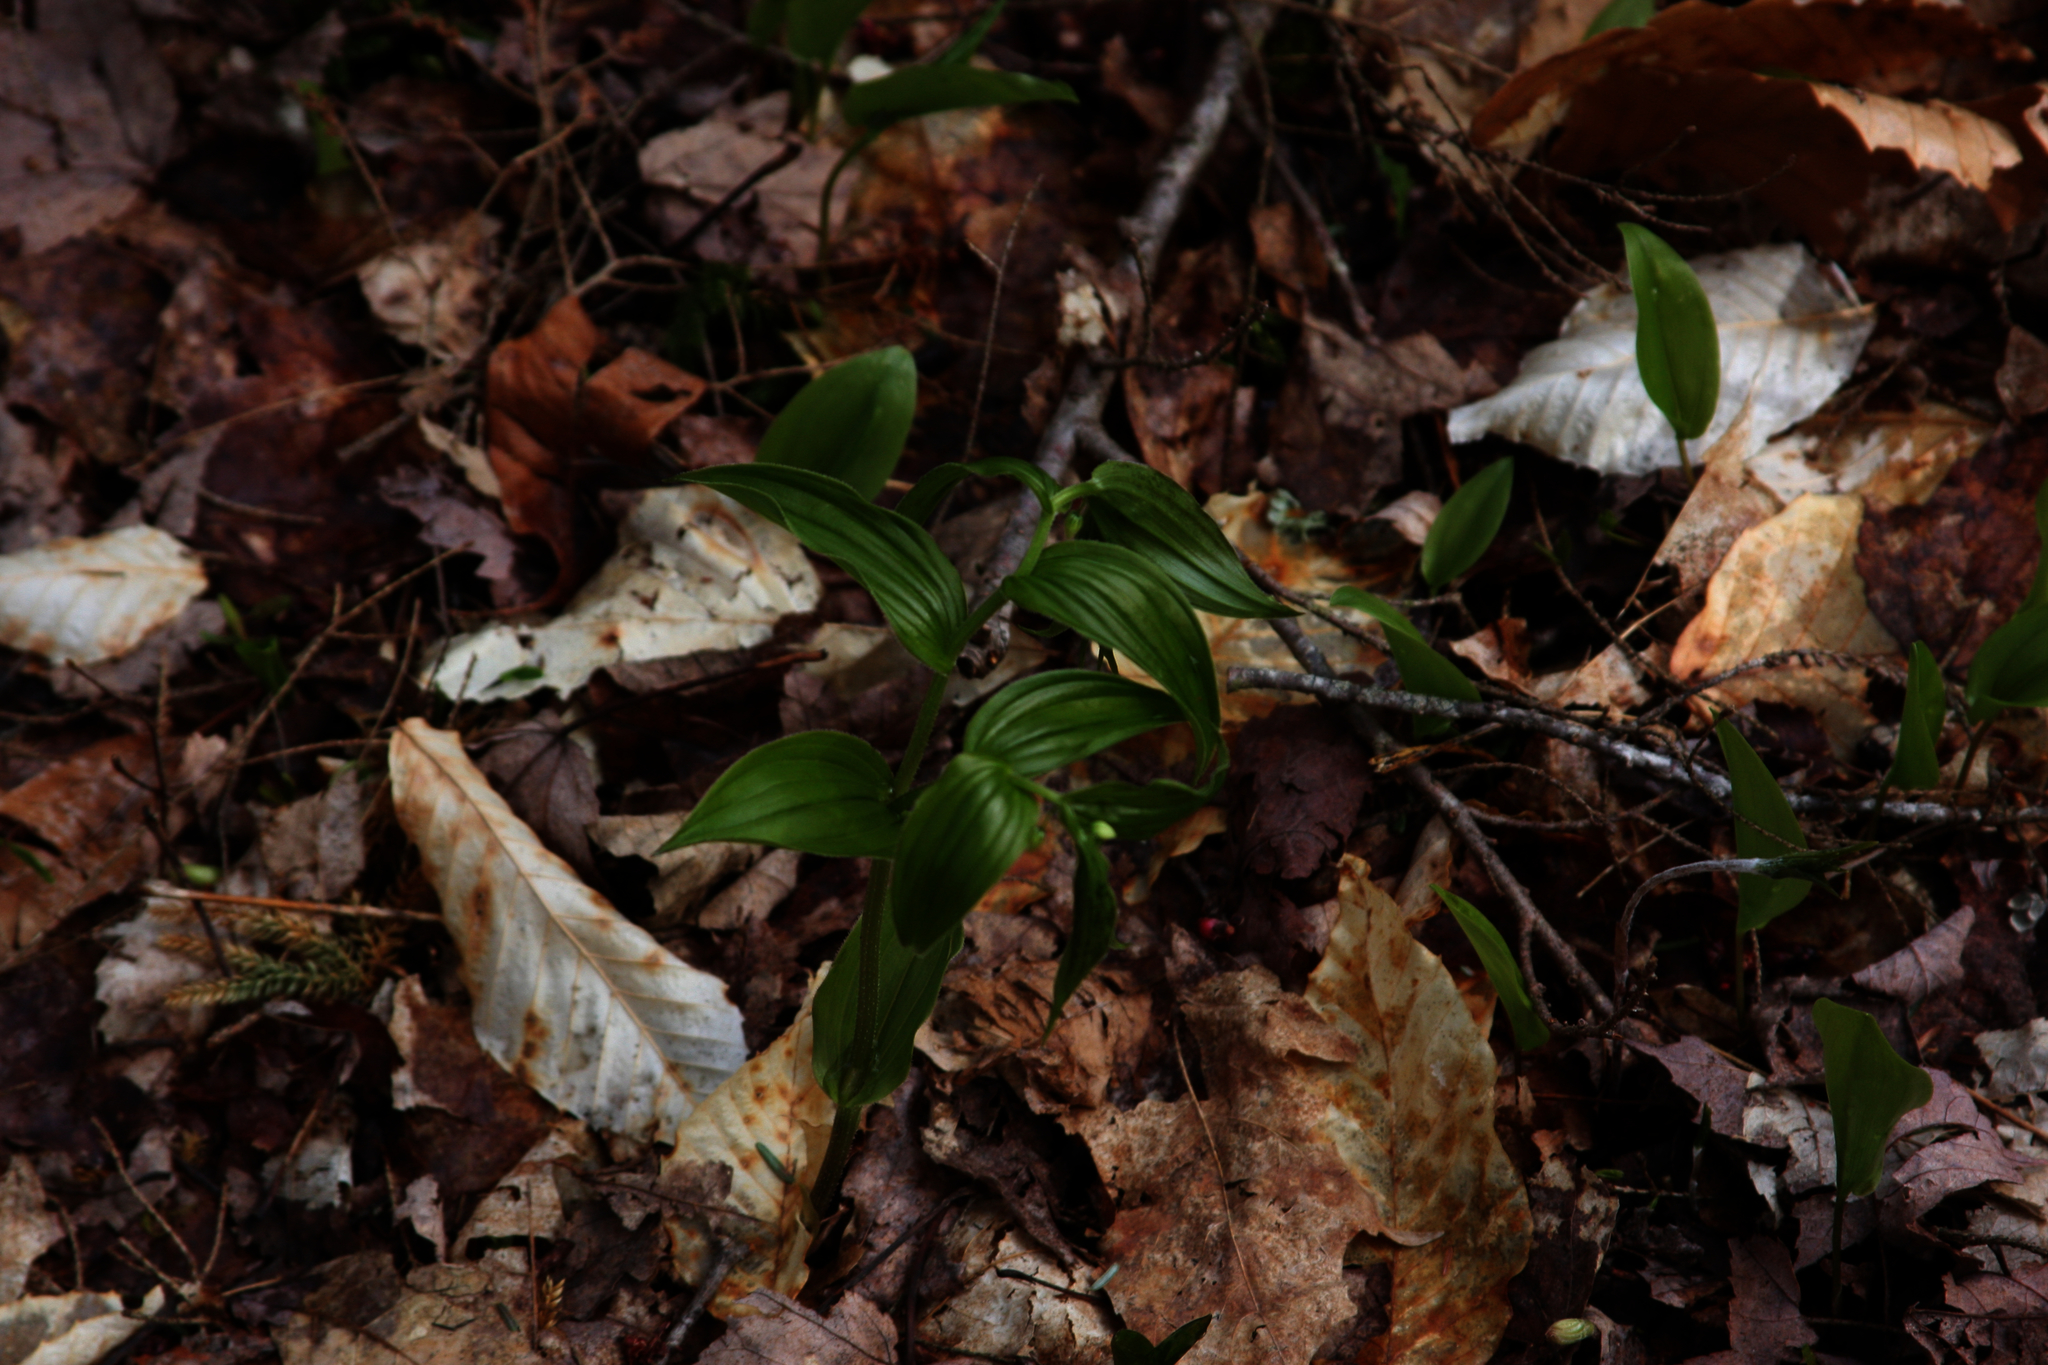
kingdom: Plantae
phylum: Tracheophyta
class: Liliopsida
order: Liliales
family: Liliaceae
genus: Streptopus
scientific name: Streptopus lanceolatus
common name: Rose mandarin
